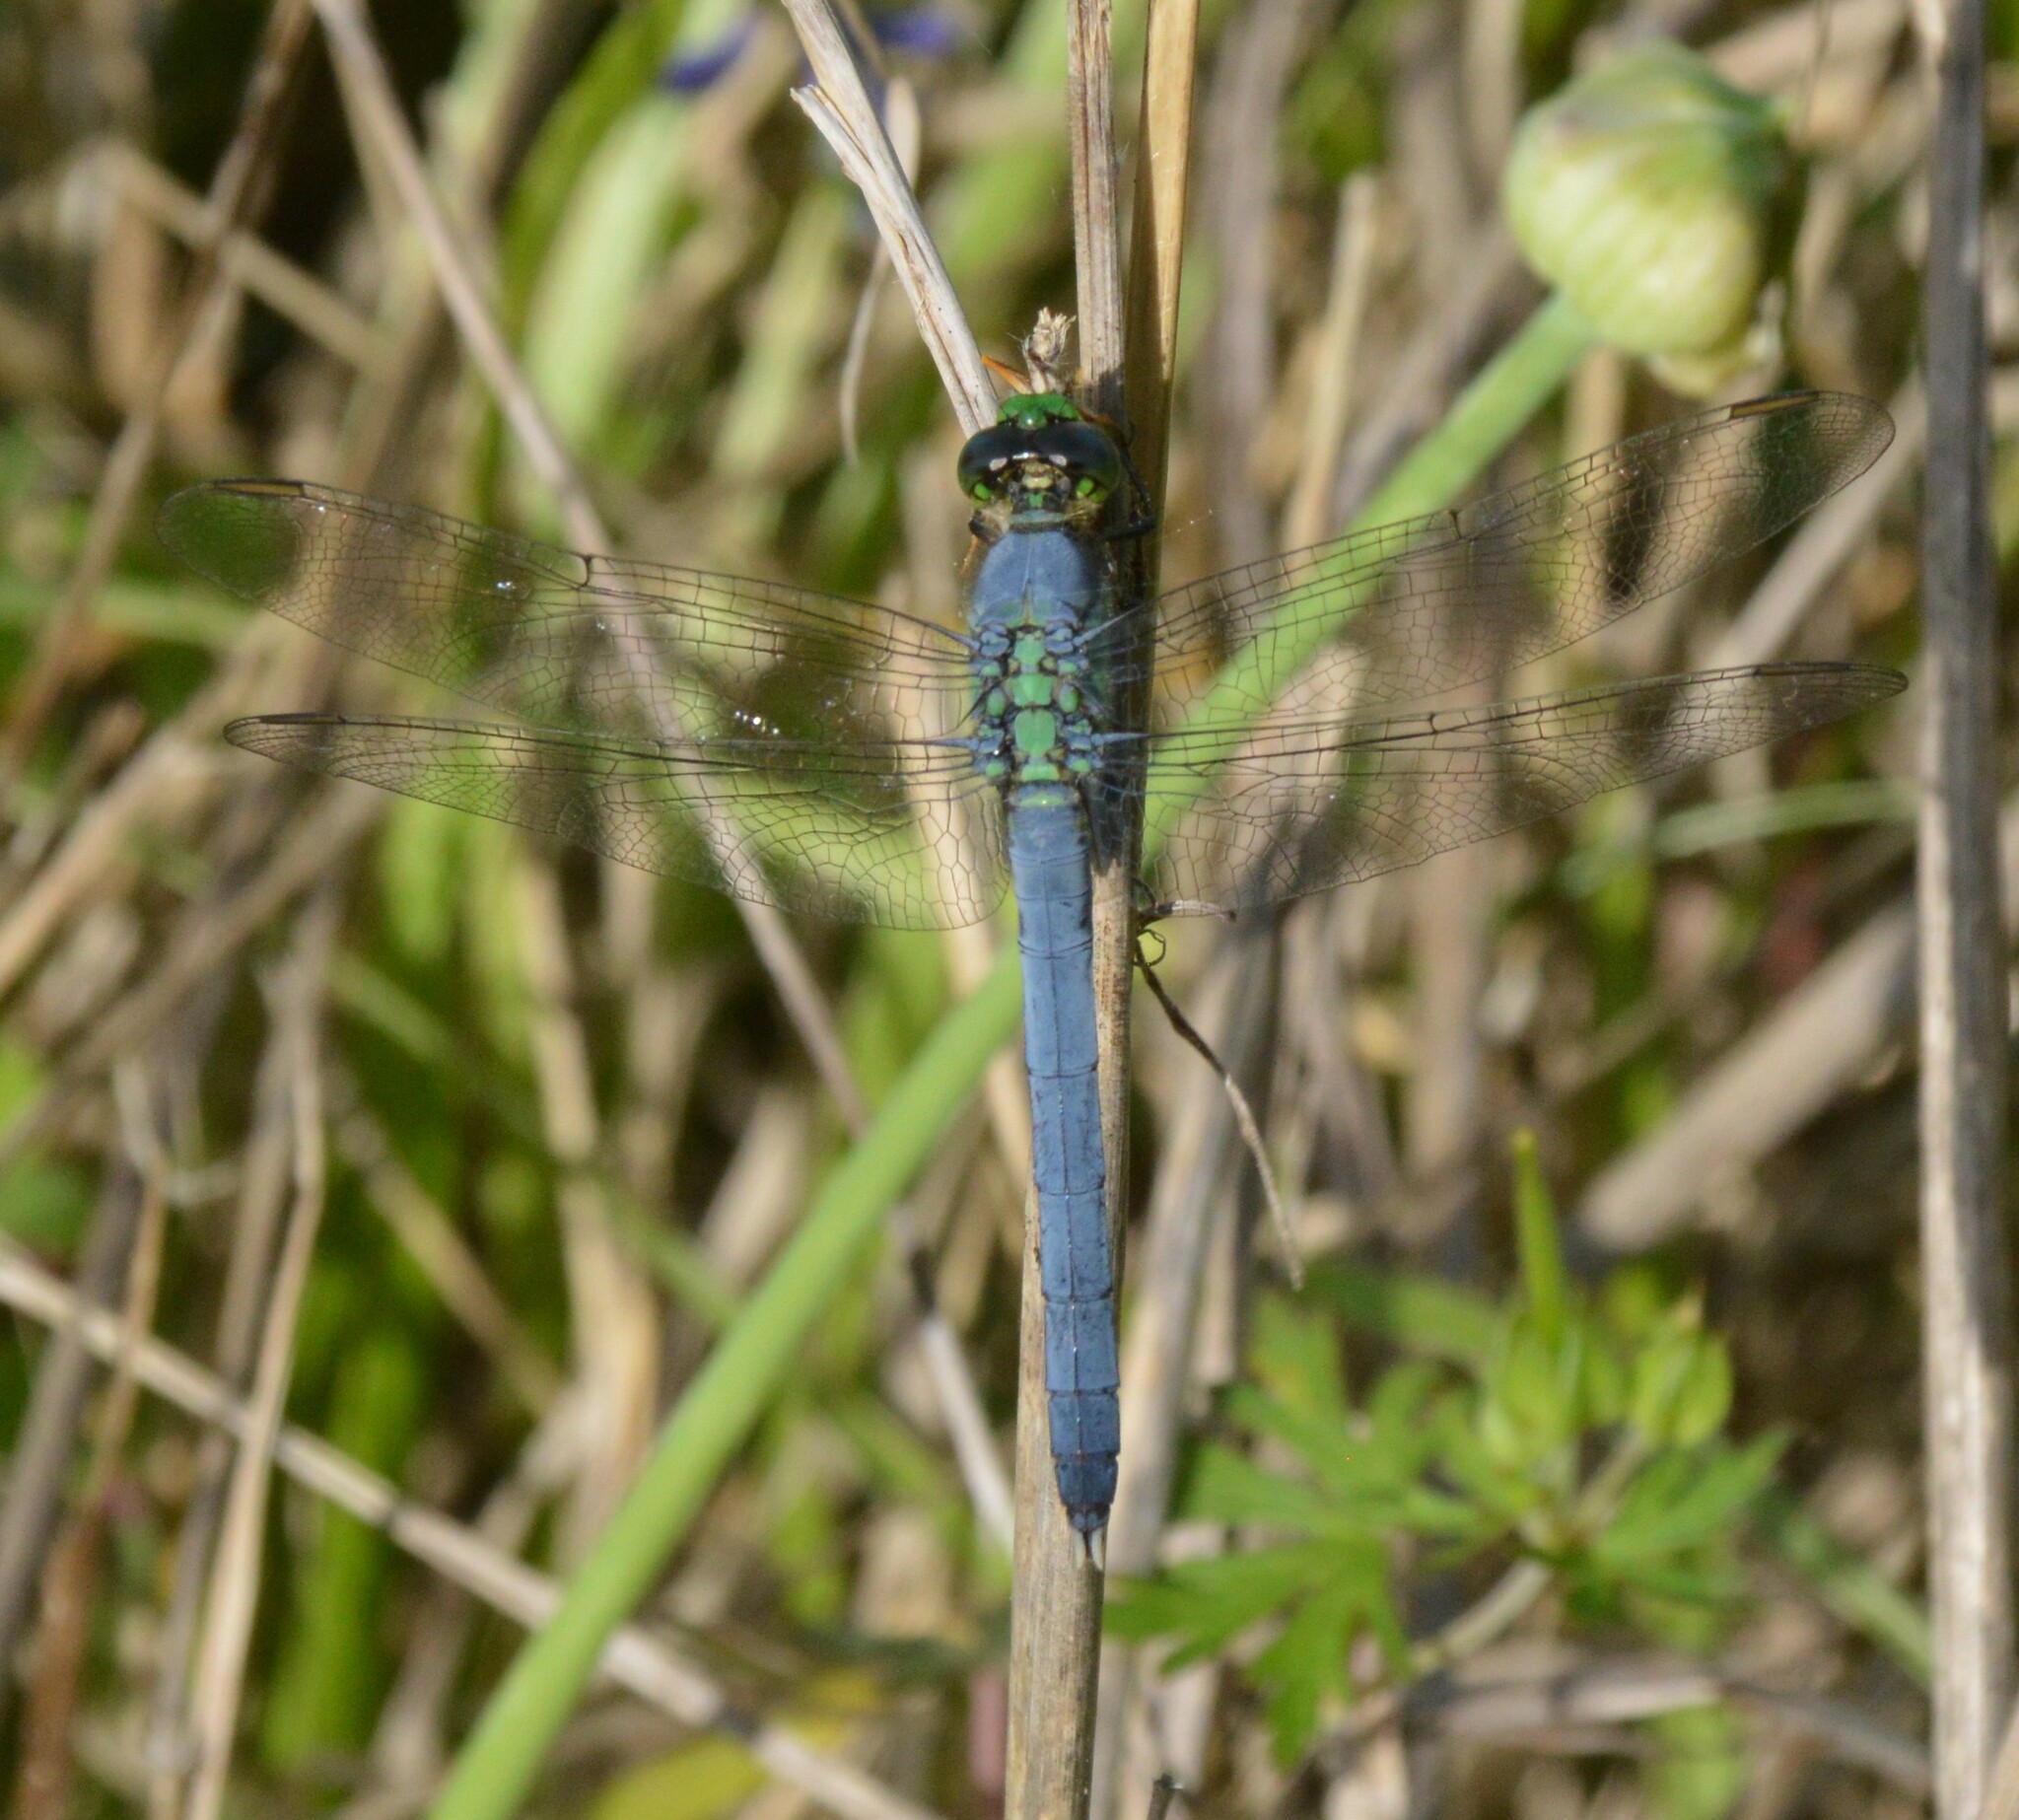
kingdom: Animalia
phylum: Arthropoda
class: Insecta
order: Odonata
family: Libellulidae
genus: Erythemis
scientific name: Erythemis simplicicollis
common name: Eastern pondhawk
